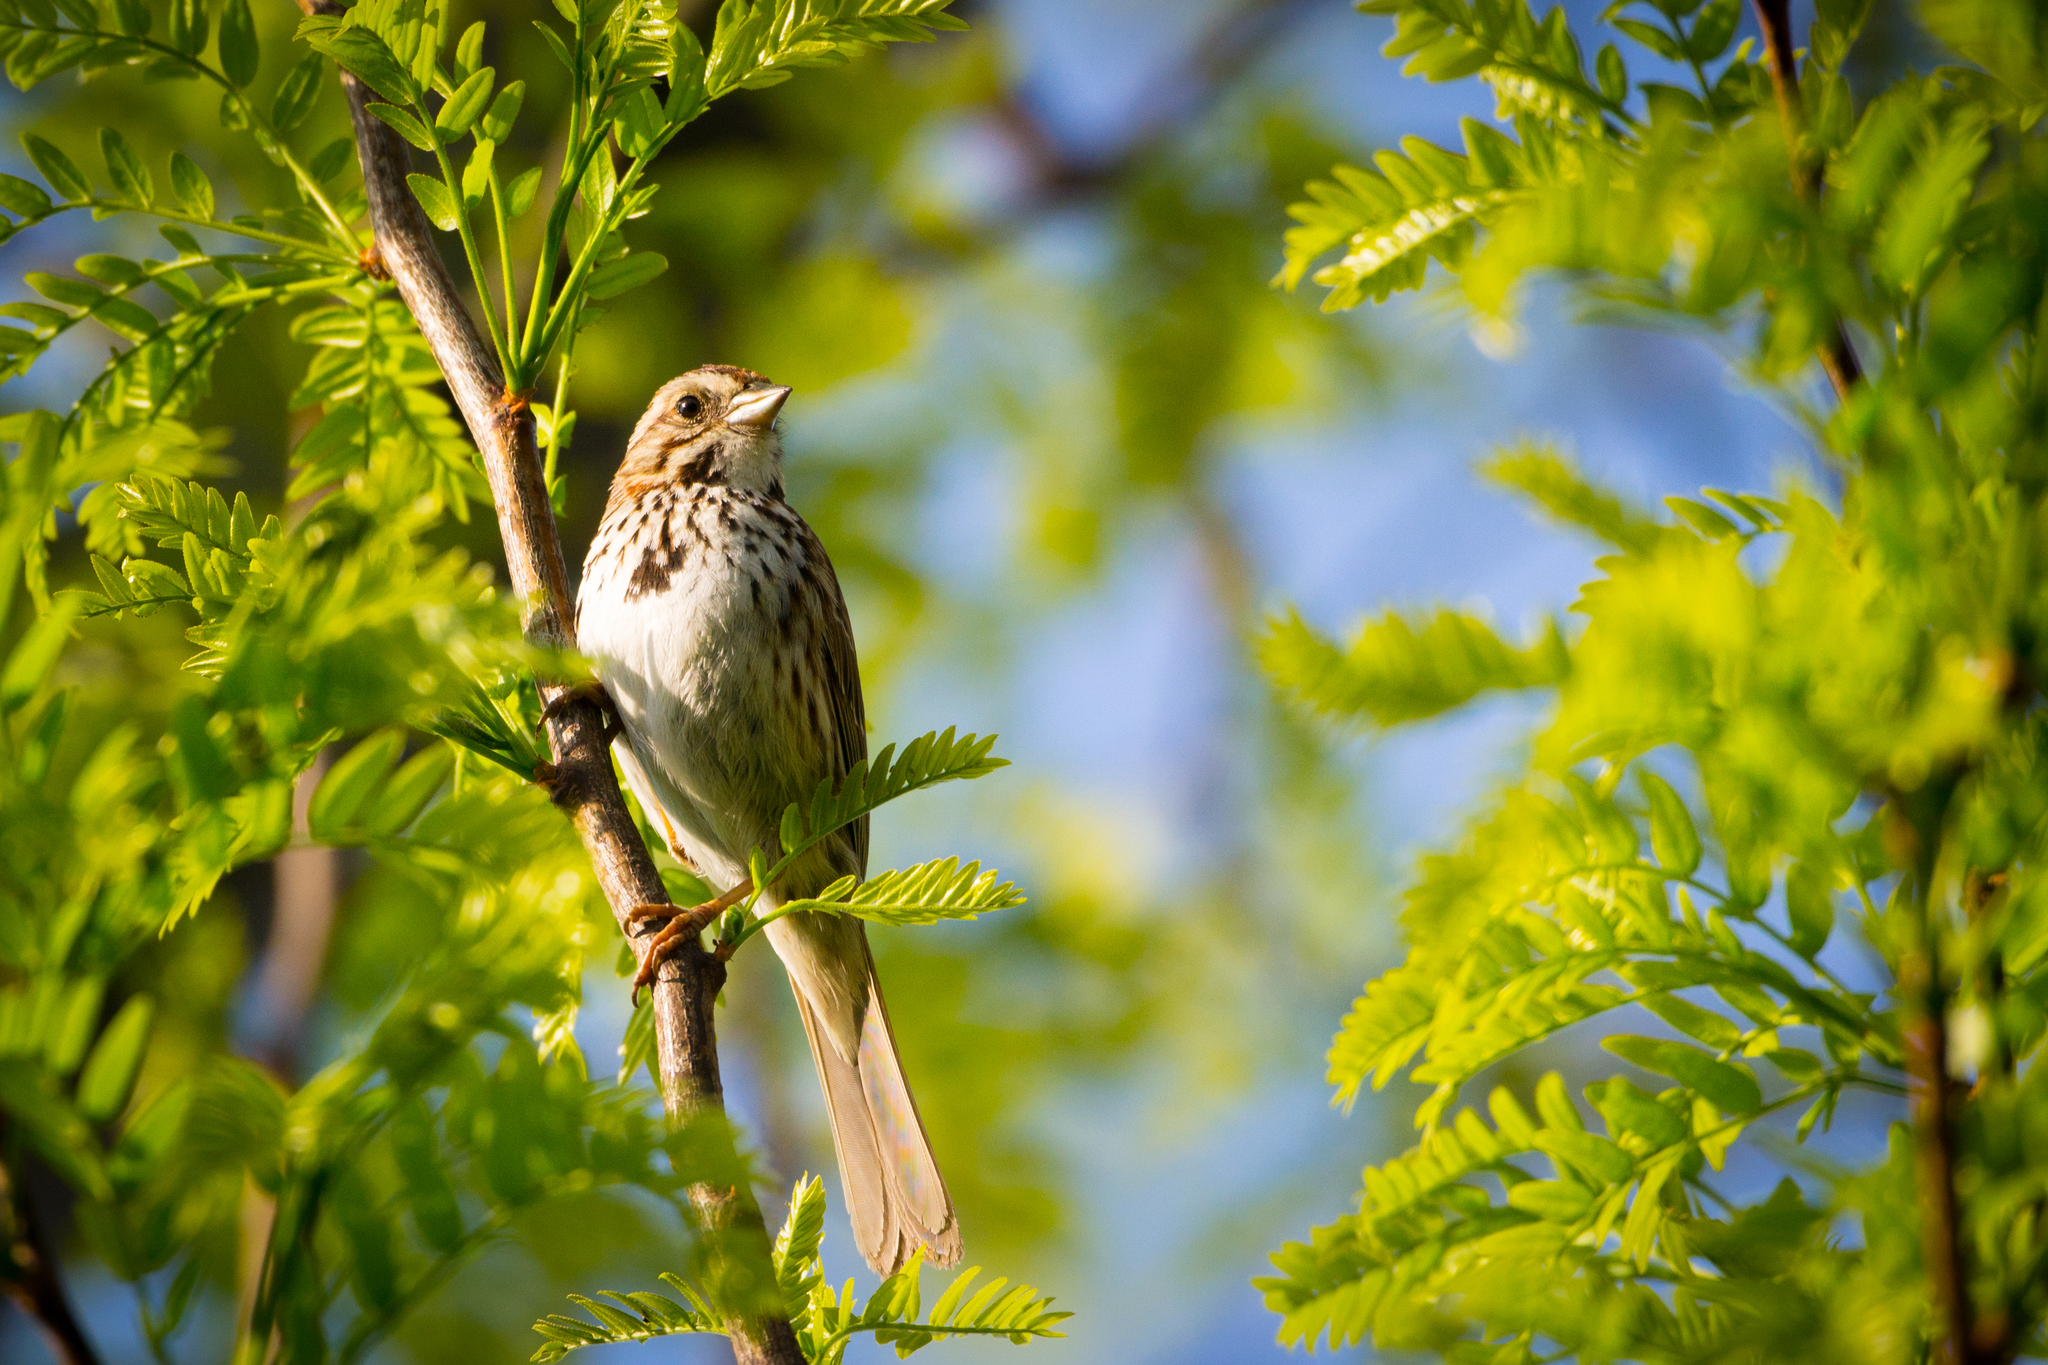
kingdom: Animalia
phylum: Chordata
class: Aves
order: Passeriformes
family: Passerellidae
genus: Melospiza
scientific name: Melospiza melodia
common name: Song sparrow
